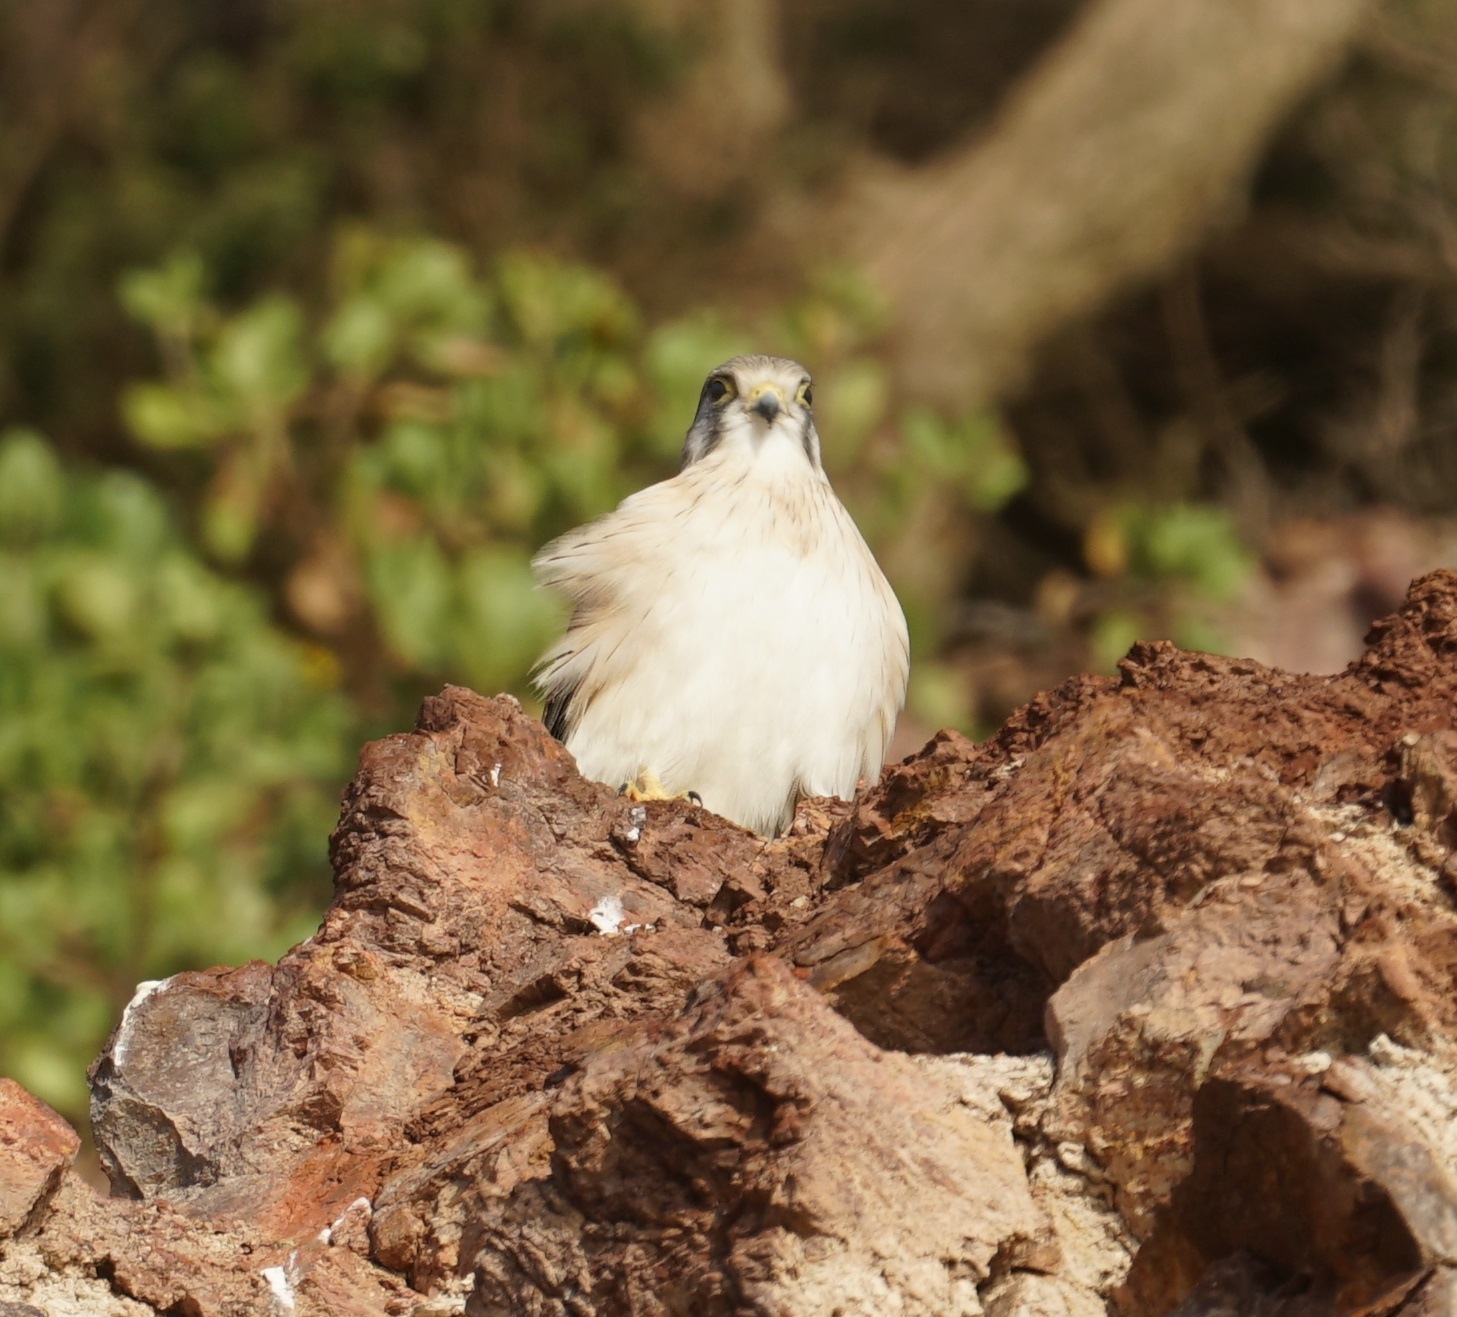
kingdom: Animalia
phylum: Chordata
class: Aves
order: Falconiformes
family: Falconidae
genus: Falco
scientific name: Falco cenchroides
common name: Nankeen kestrel
